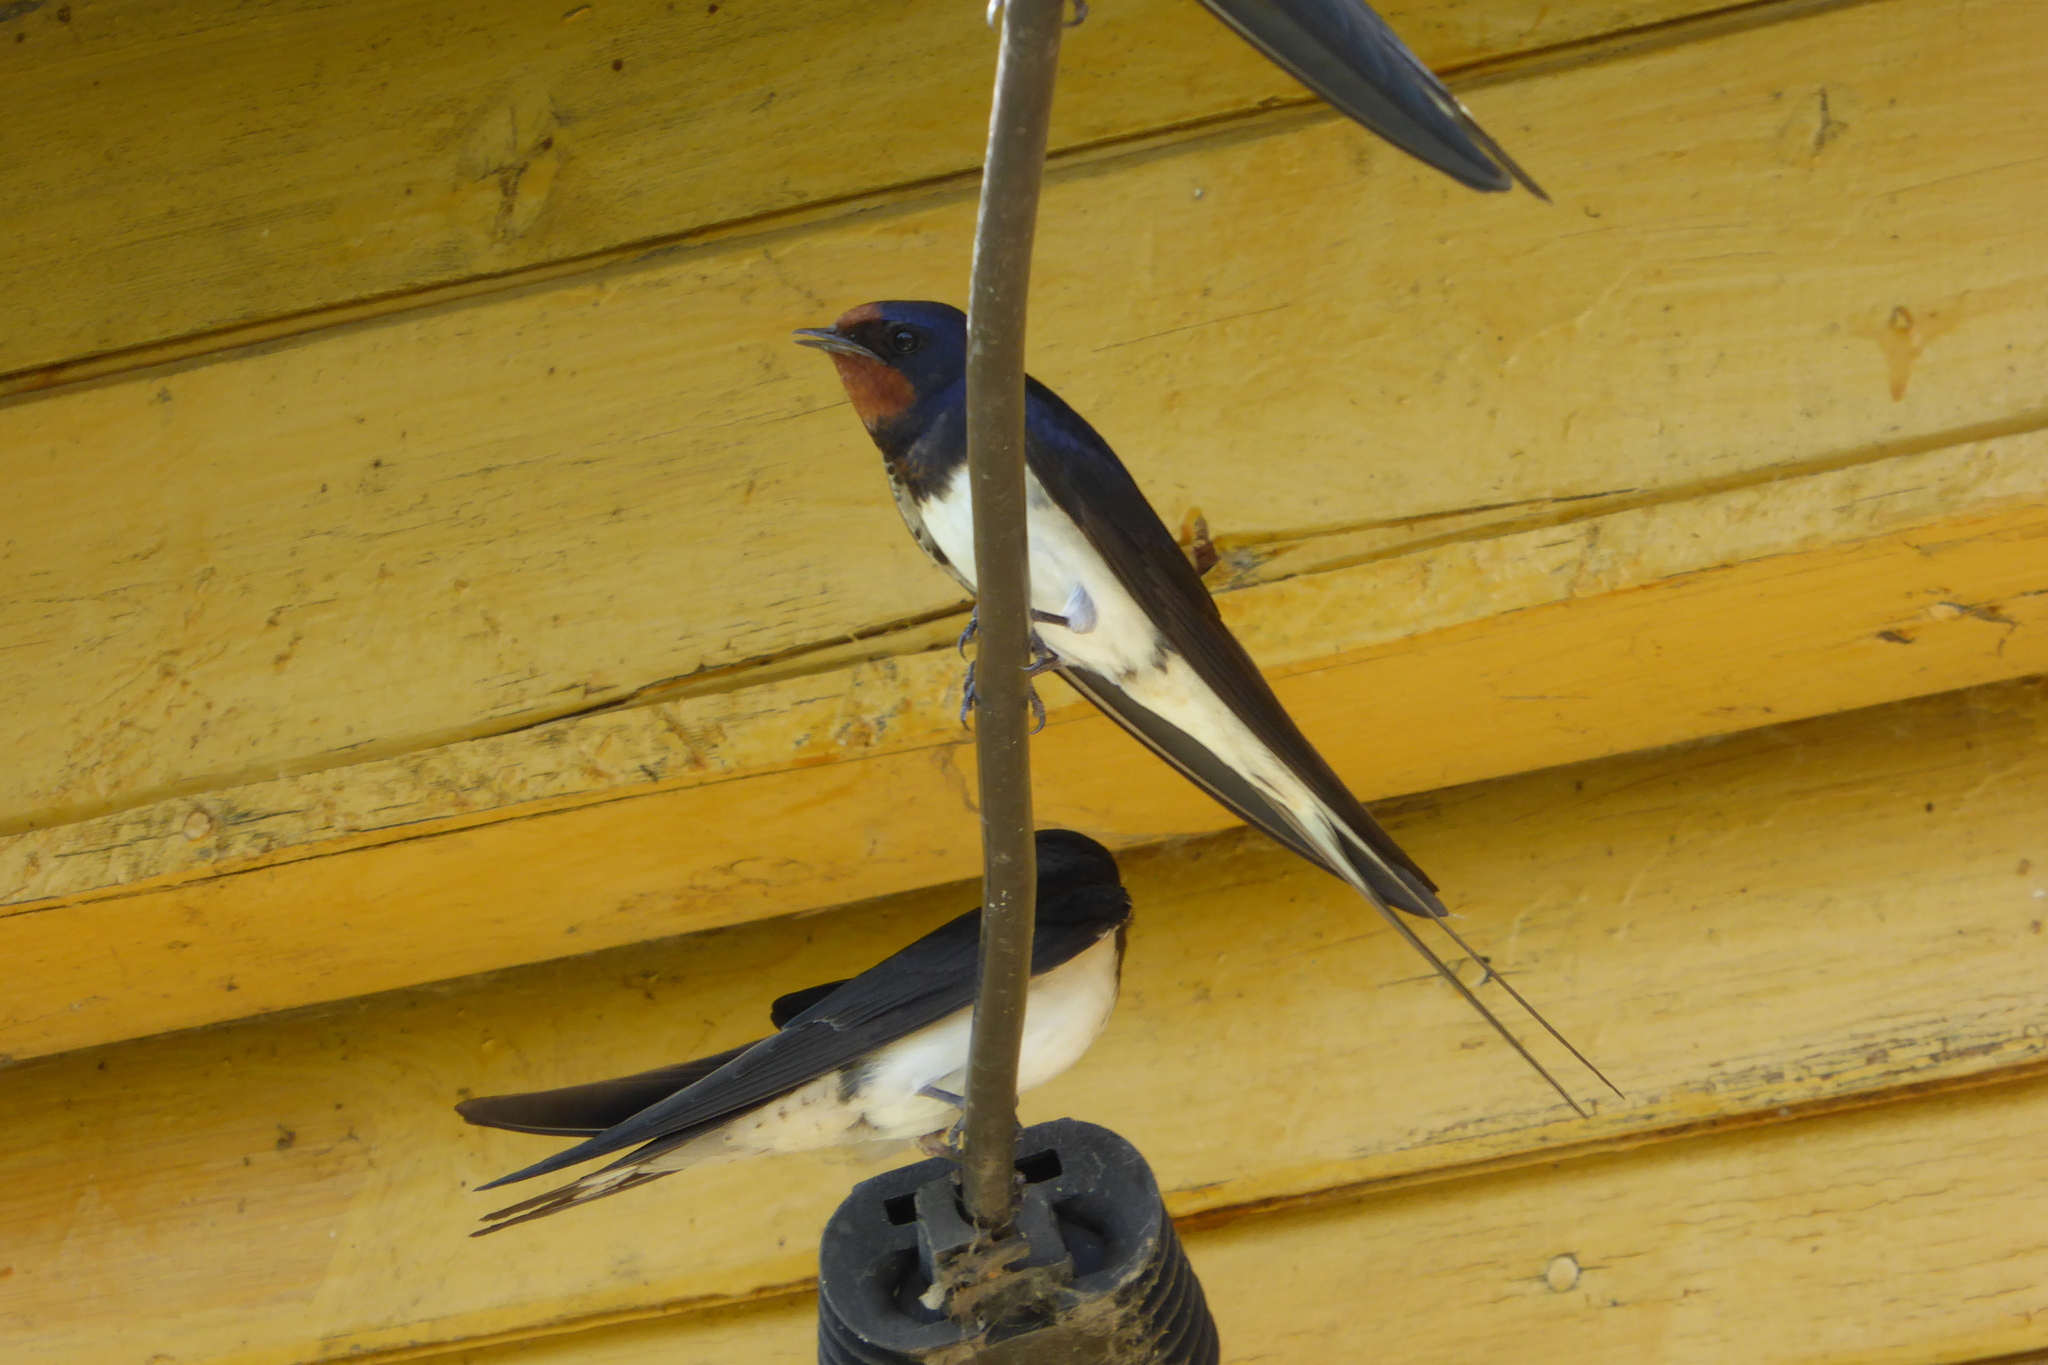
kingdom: Animalia
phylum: Chordata
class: Aves
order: Passeriformes
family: Hirundinidae
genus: Hirundo
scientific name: Hirundo rustica
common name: Barn swallow
